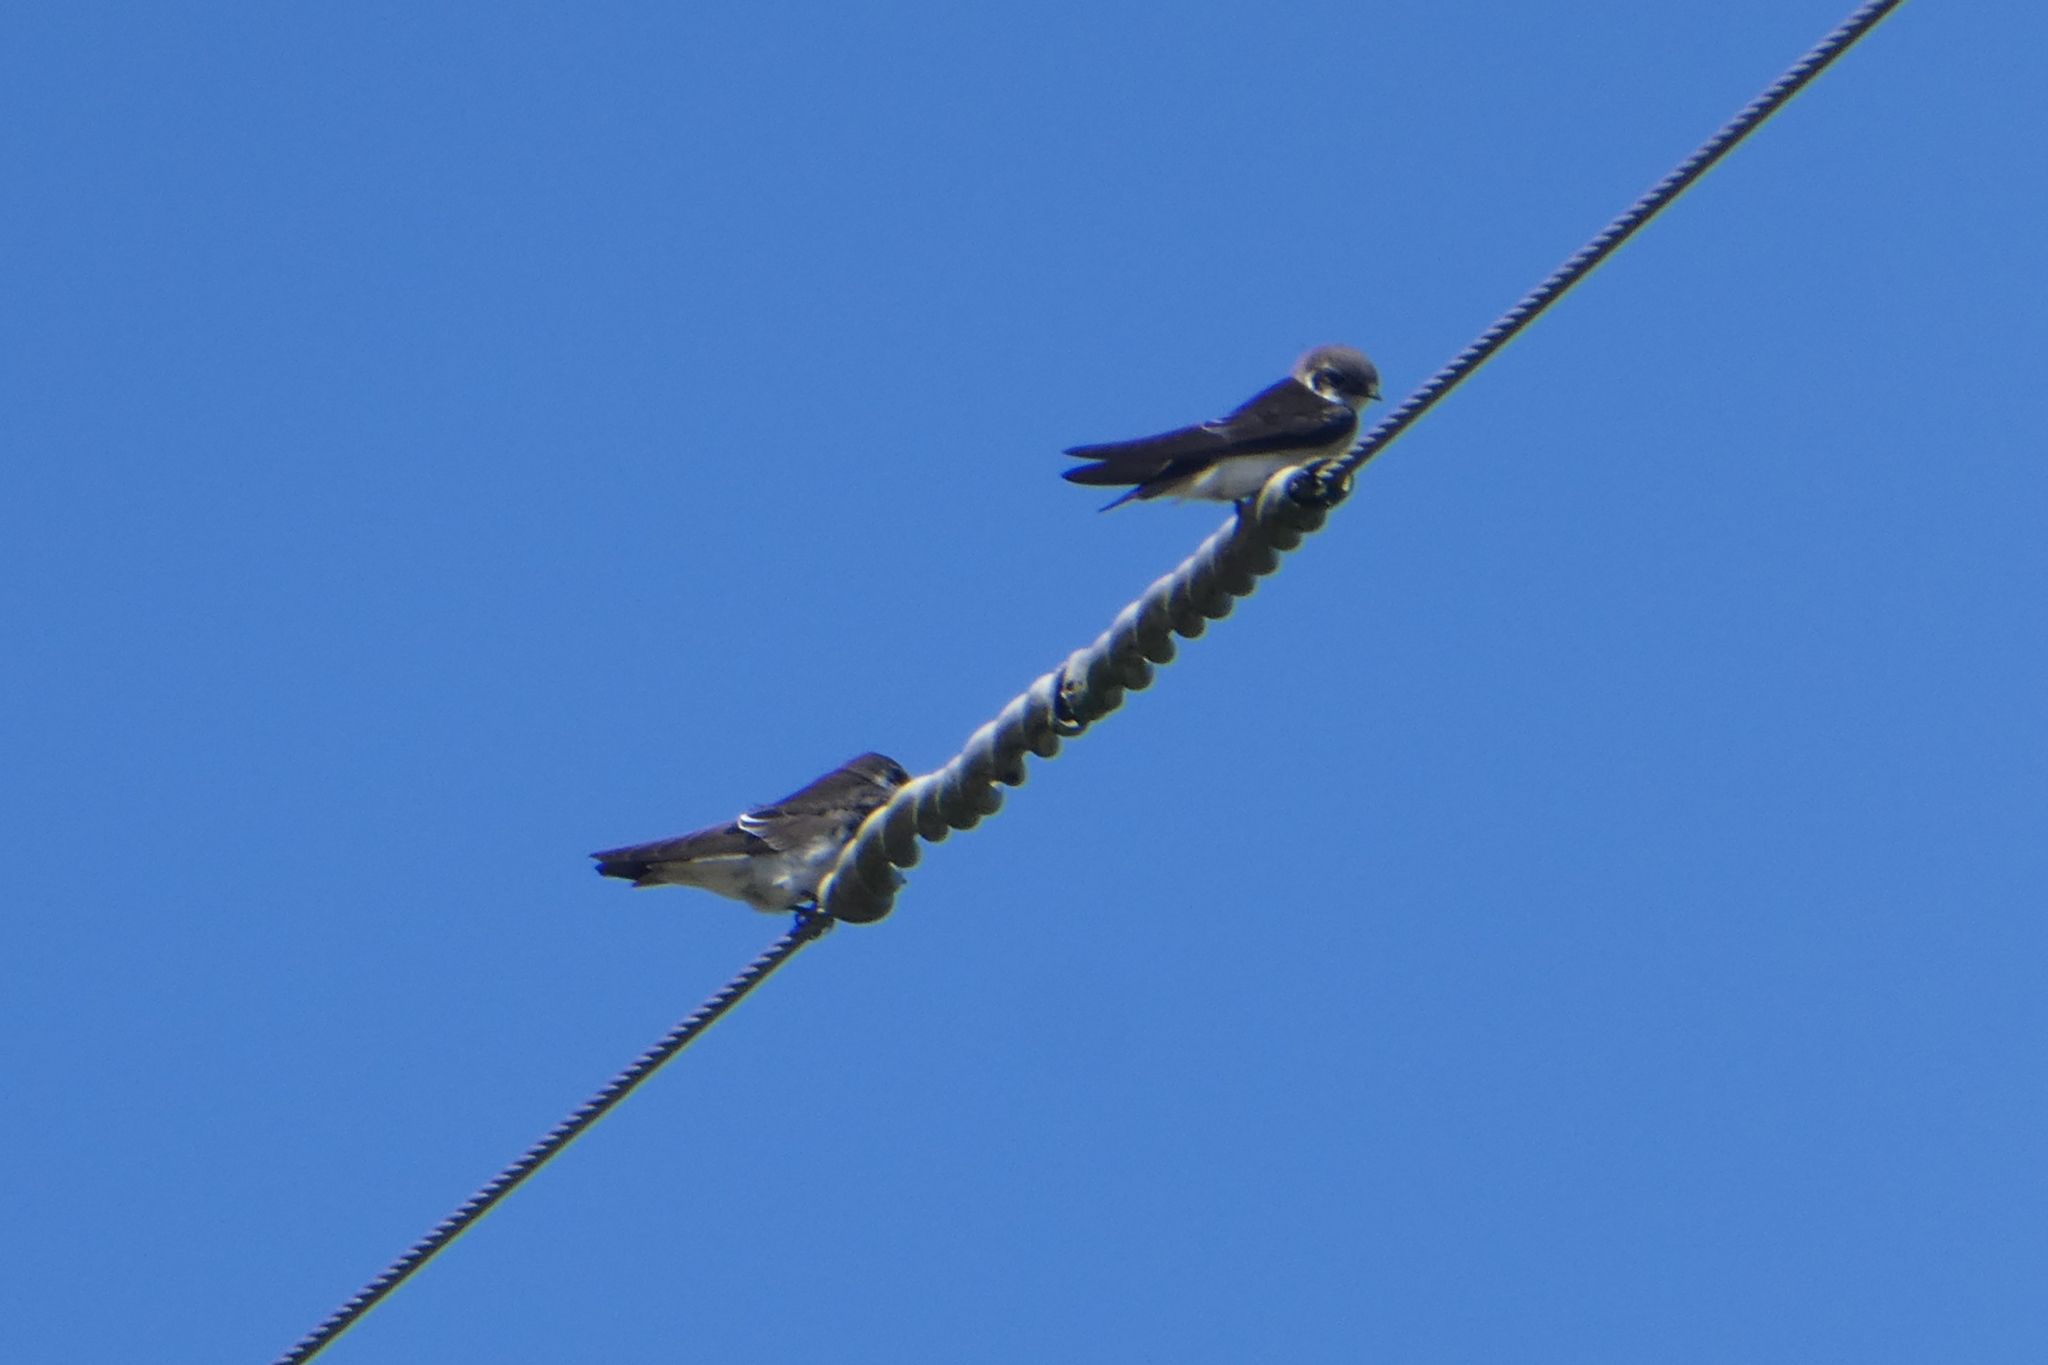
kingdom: Animalia
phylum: Chordata
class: Aves
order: Passeriformes
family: Hirundinidae
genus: Tachycineta
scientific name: Tachycineta thalassina
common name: Violet-green swallow
